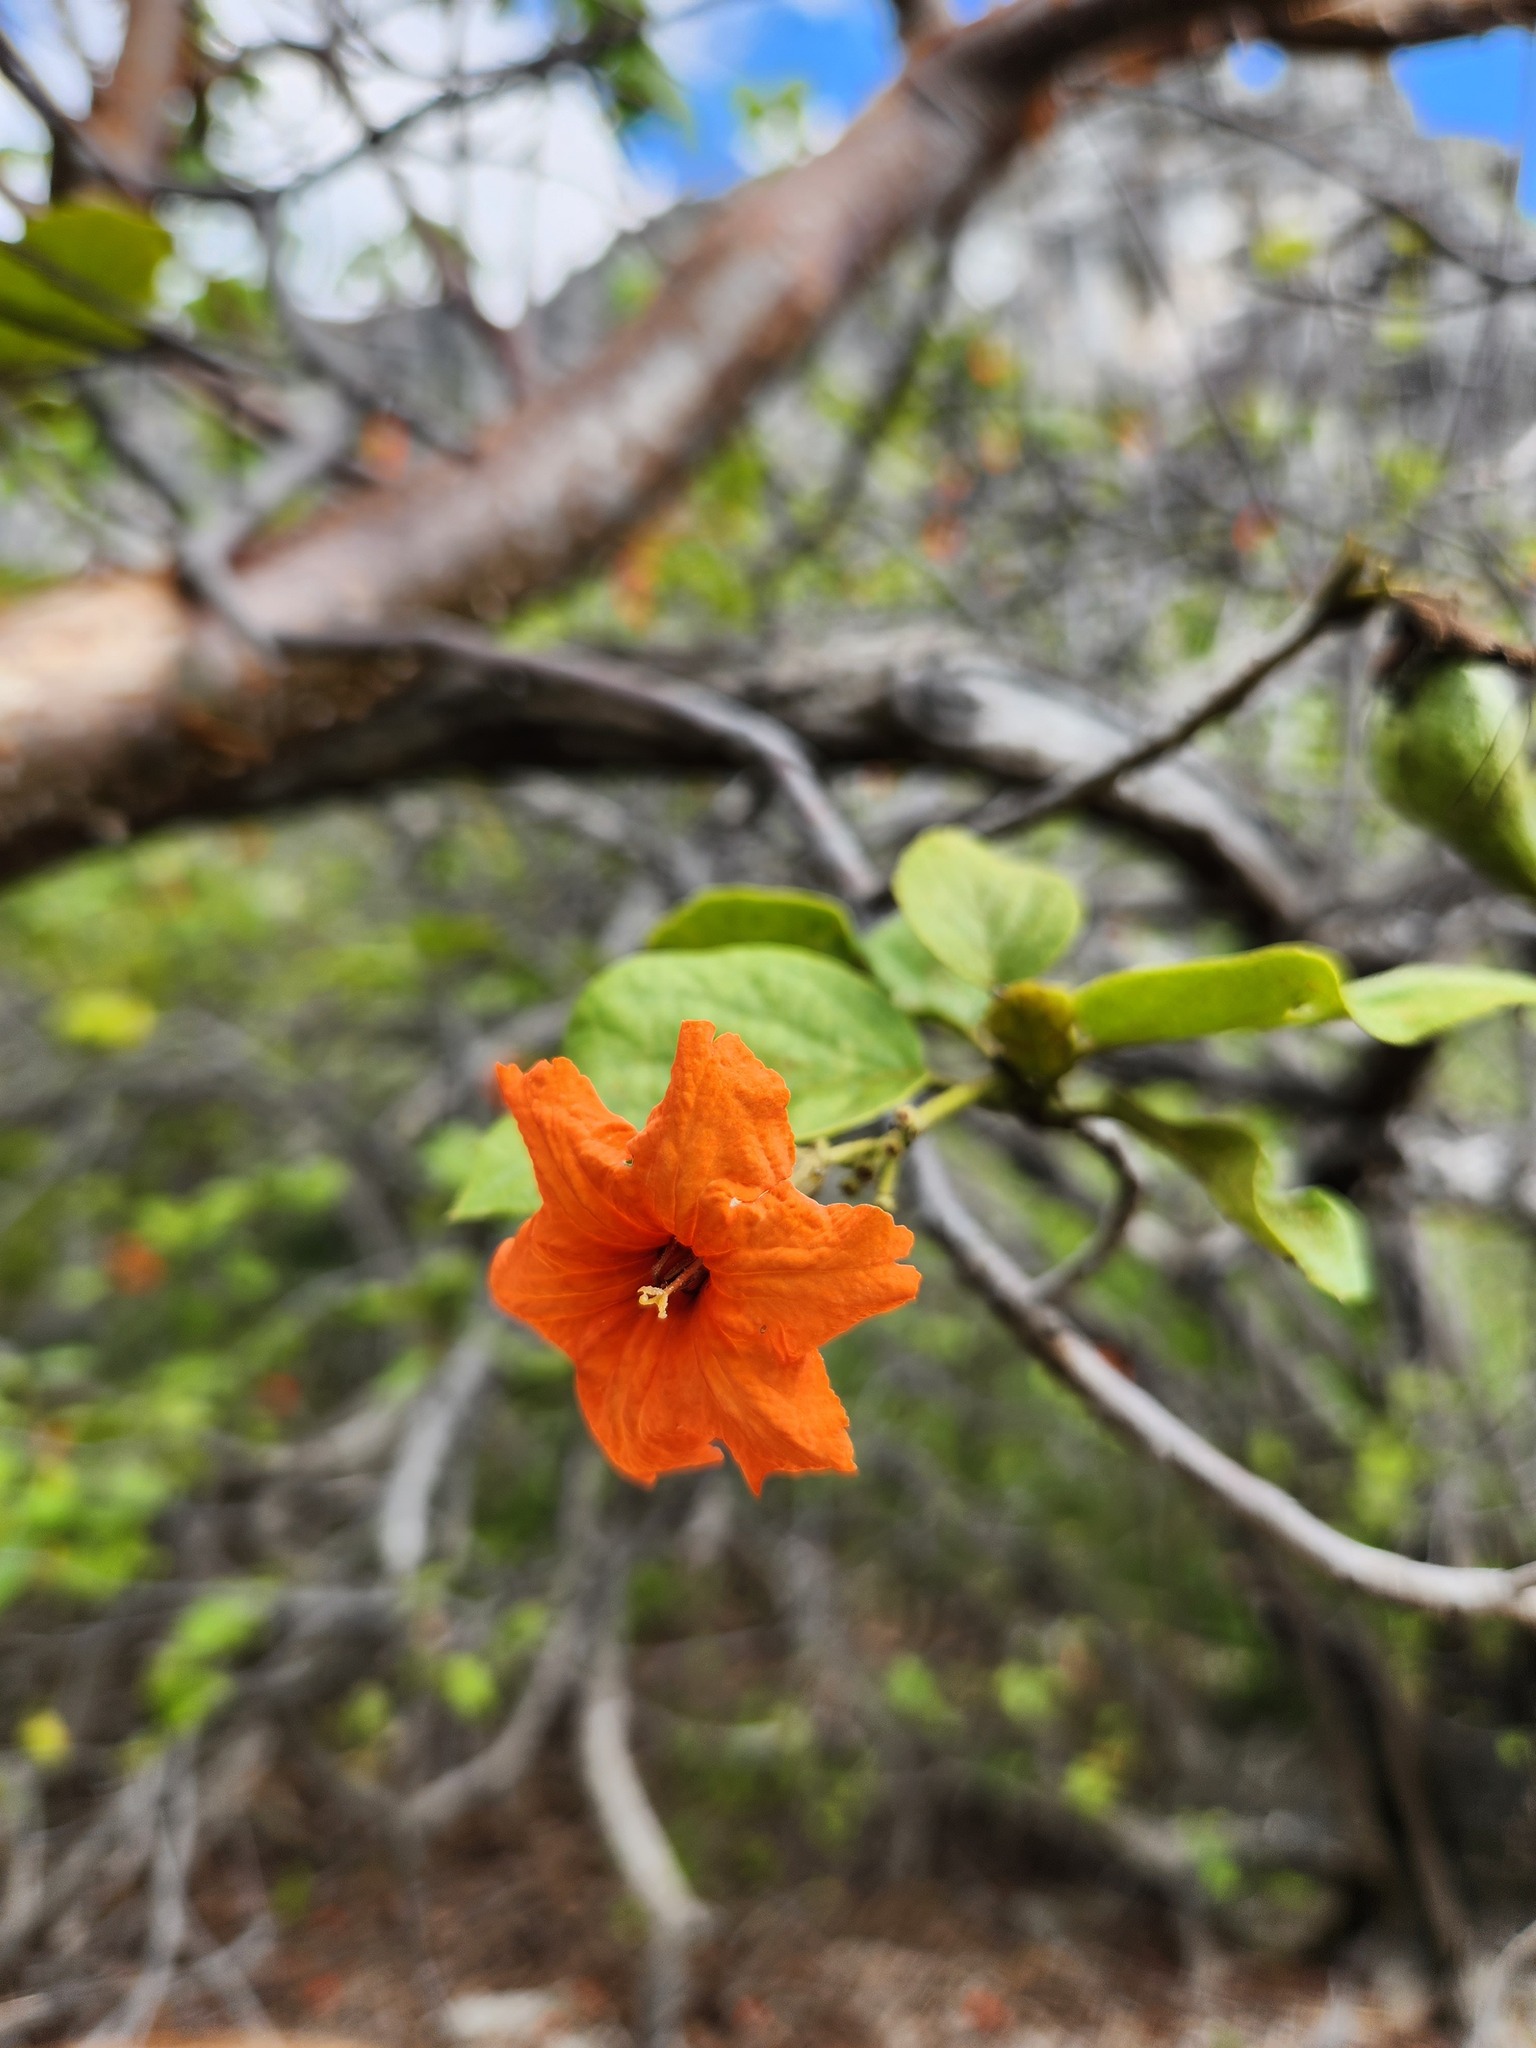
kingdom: Plantae
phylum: Tracheophyta
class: Magnoliopsida
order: Boraginales
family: Cordiaceae
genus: Cordia
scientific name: Cordia sebestena
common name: Largeleaf geigertree
